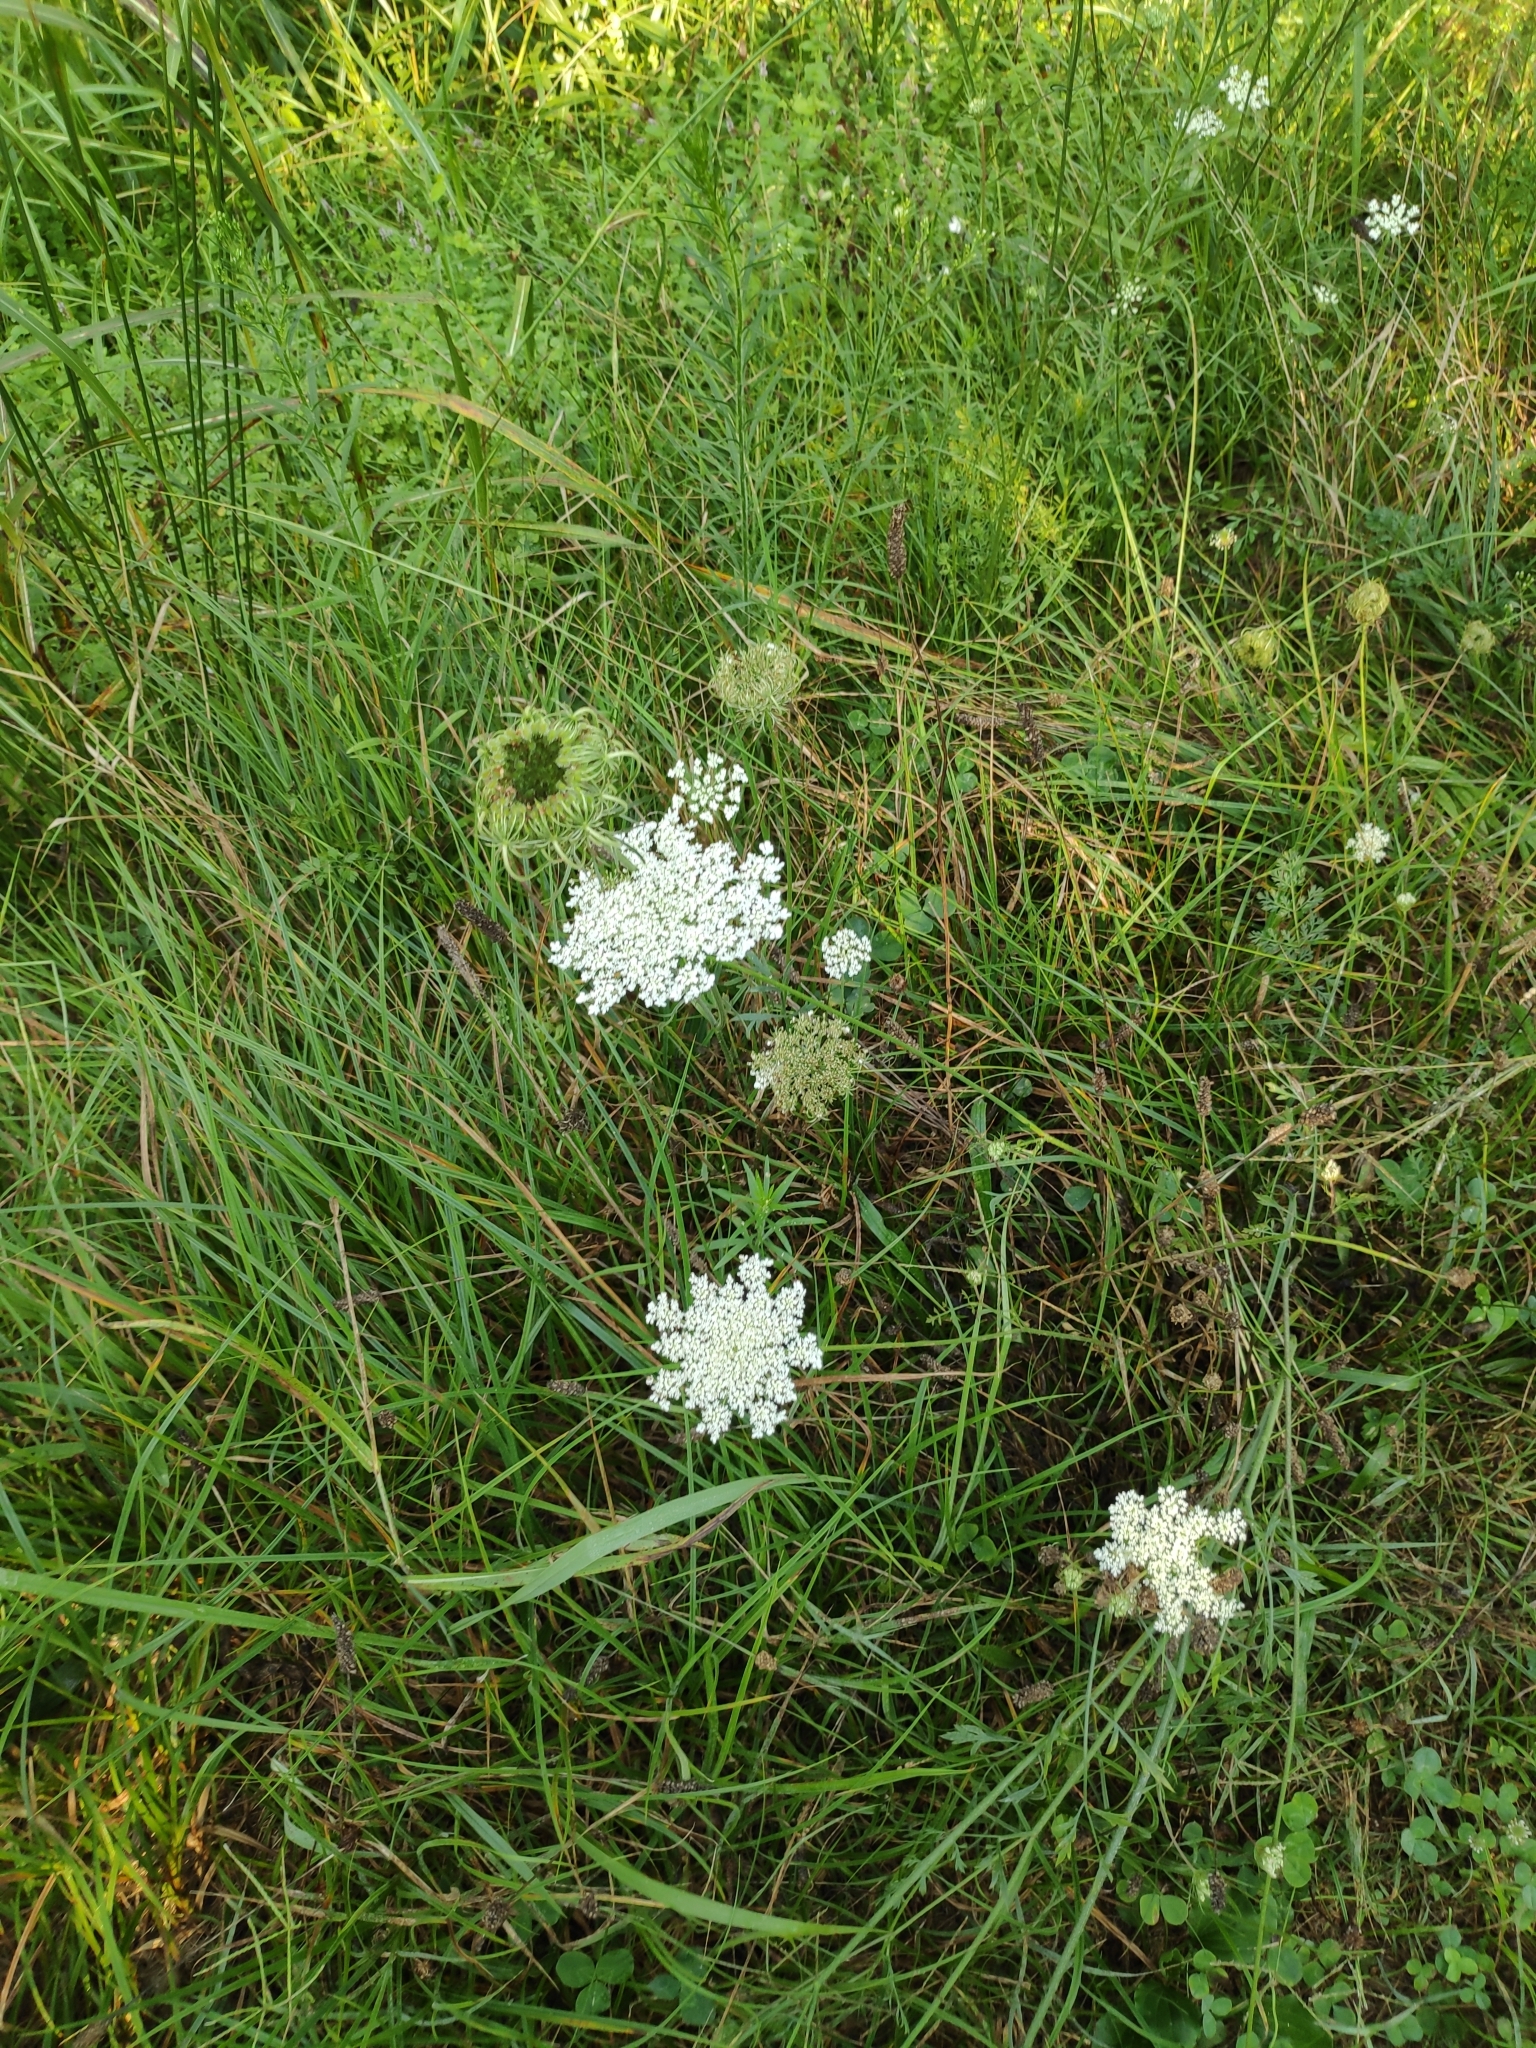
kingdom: Plantae
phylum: Tracheophyta
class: Magnoliopsida
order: Apiales
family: Apiaceae
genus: Daucus
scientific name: Daucus carota
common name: Wild carrot
